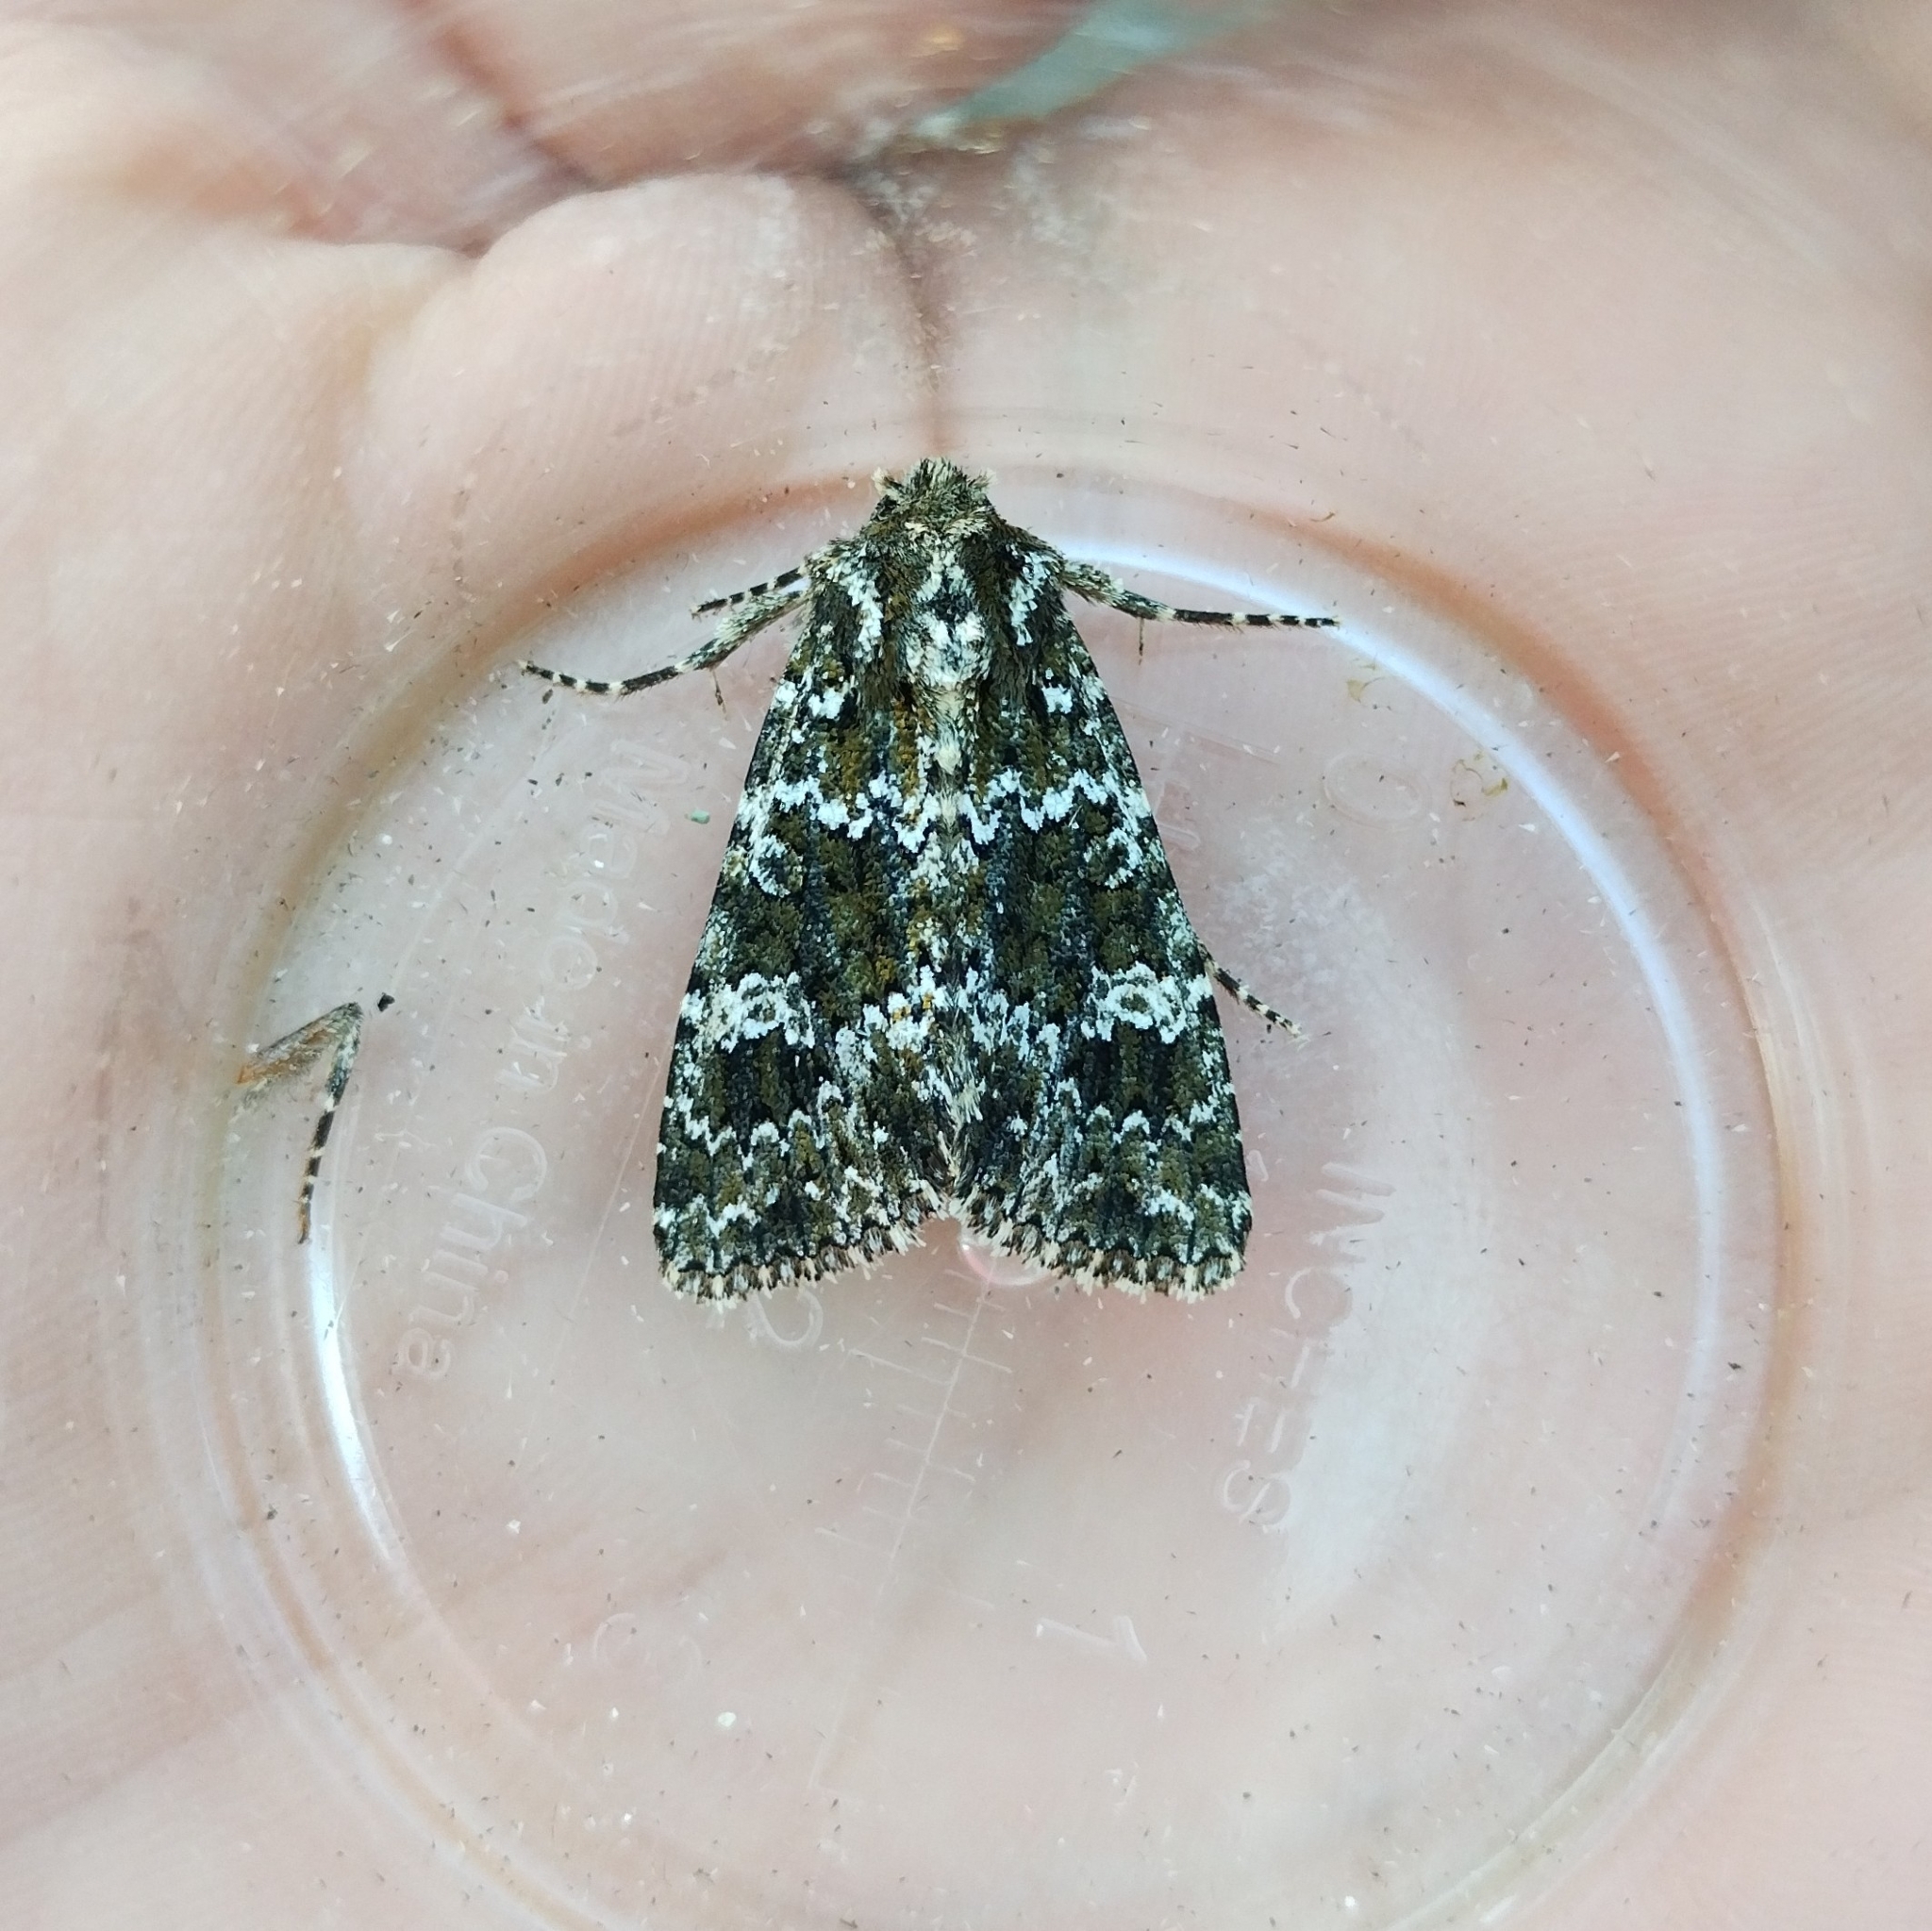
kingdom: Animalia
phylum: Arthropoda
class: Insecta
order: Lepidoptera
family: Noctuidae
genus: Polymixis
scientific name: Polymixis polymita
